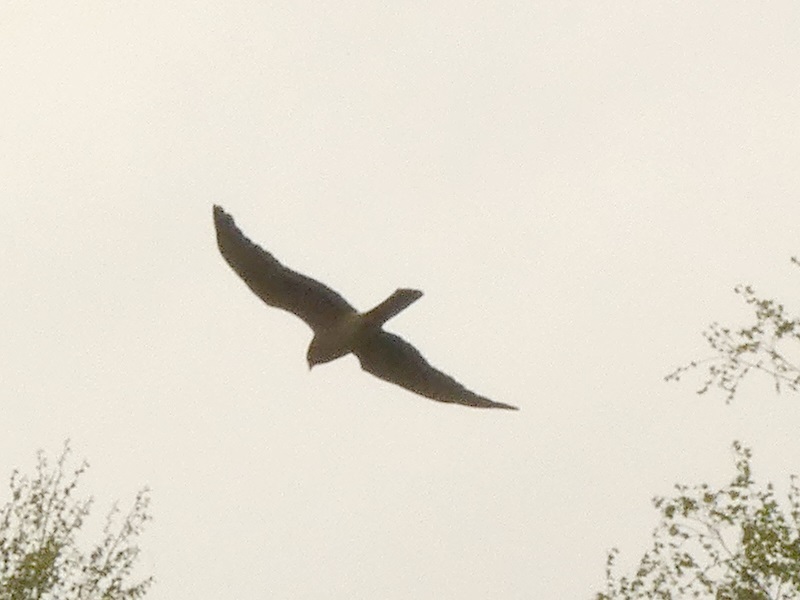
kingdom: Animalia
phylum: Chordata
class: Aves
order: Accipitriformes
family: Accipitridae
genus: Circus
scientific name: Circus pygargus
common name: Montagu's harrier
